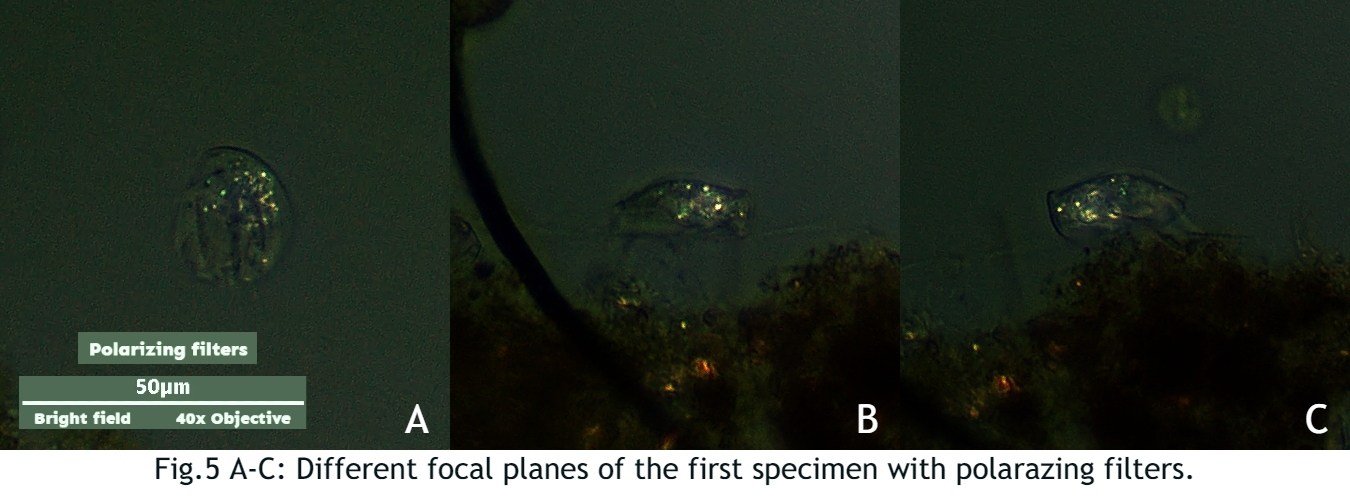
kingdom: Chromista
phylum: Ciliophora
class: Hypotrichea
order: Euplotida
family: Aspidiscidae
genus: Aspidisca
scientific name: Aspidisca cicada
